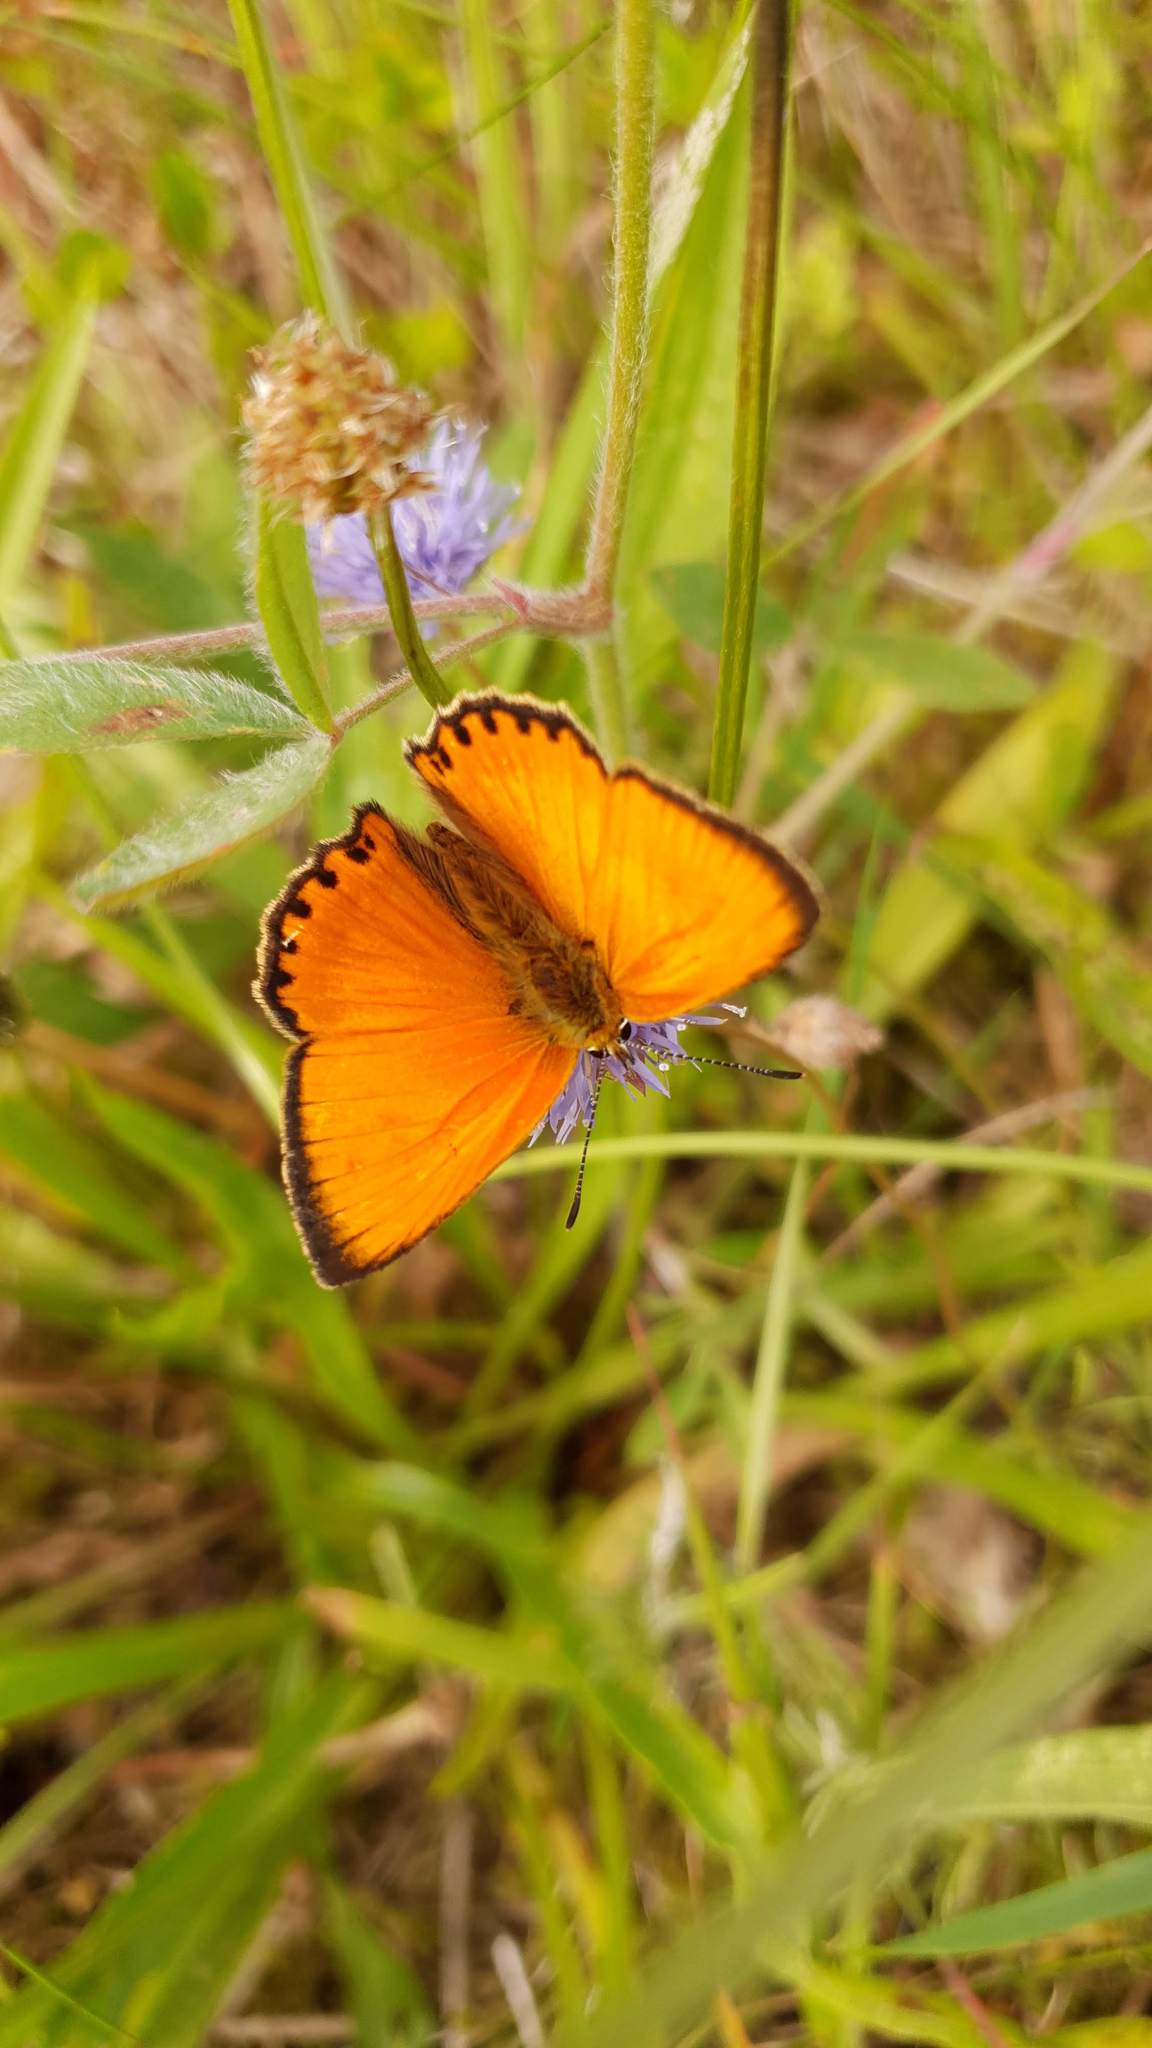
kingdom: Animalia
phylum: Arthropoda
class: Insecta
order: Lepidoptera
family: Lycaenidae
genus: Lycaena
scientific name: Lycaena virgaureae
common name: Scarce copper
